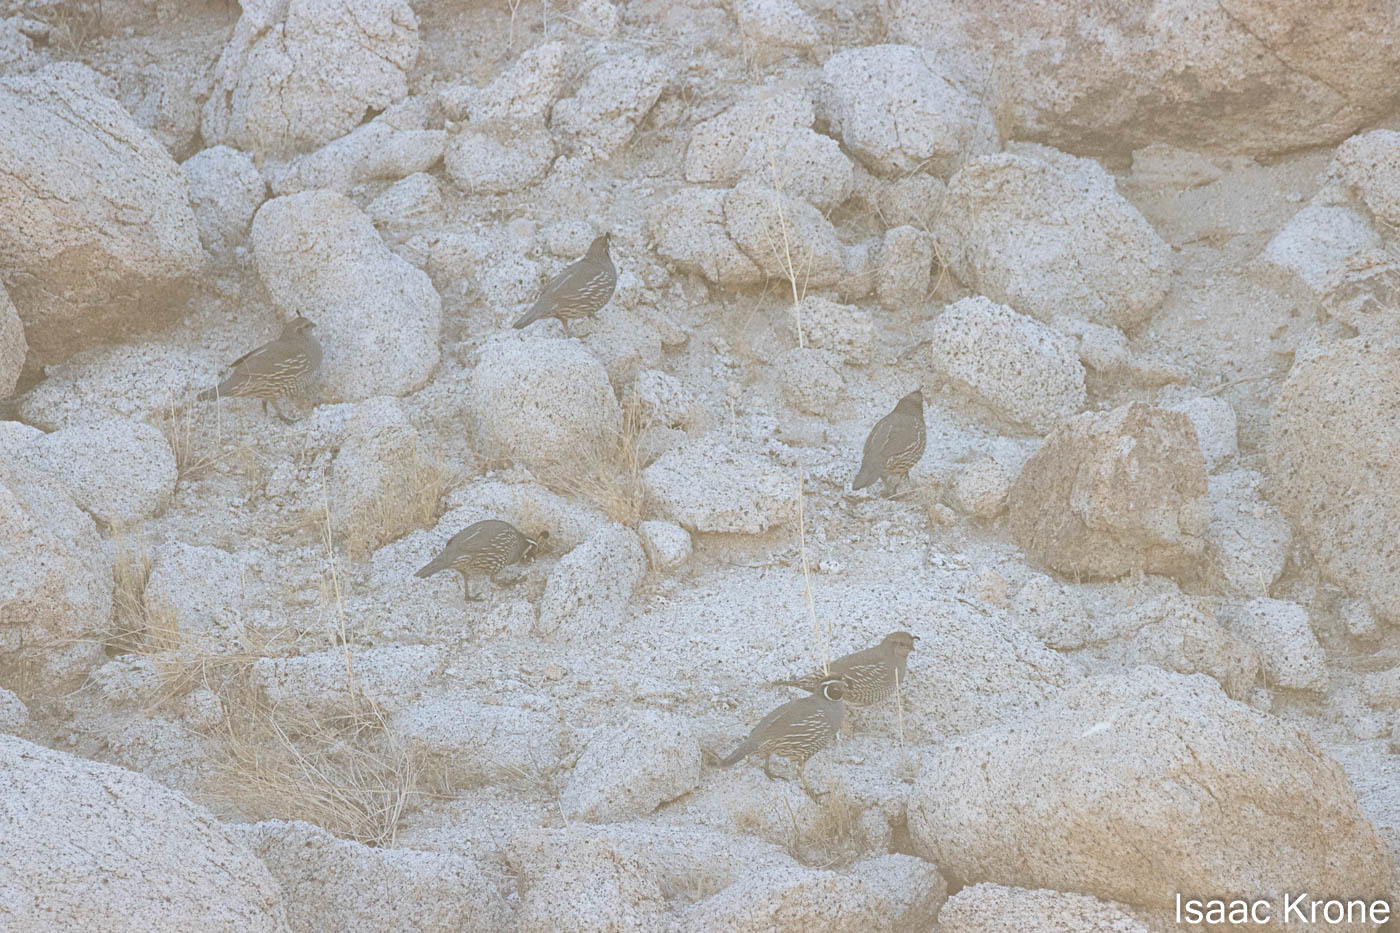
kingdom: Animalia
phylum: Chordata
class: Aves
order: Galliformes
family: Odontophoridae
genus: Callipepla
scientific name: Callipepla californica
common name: California quail
